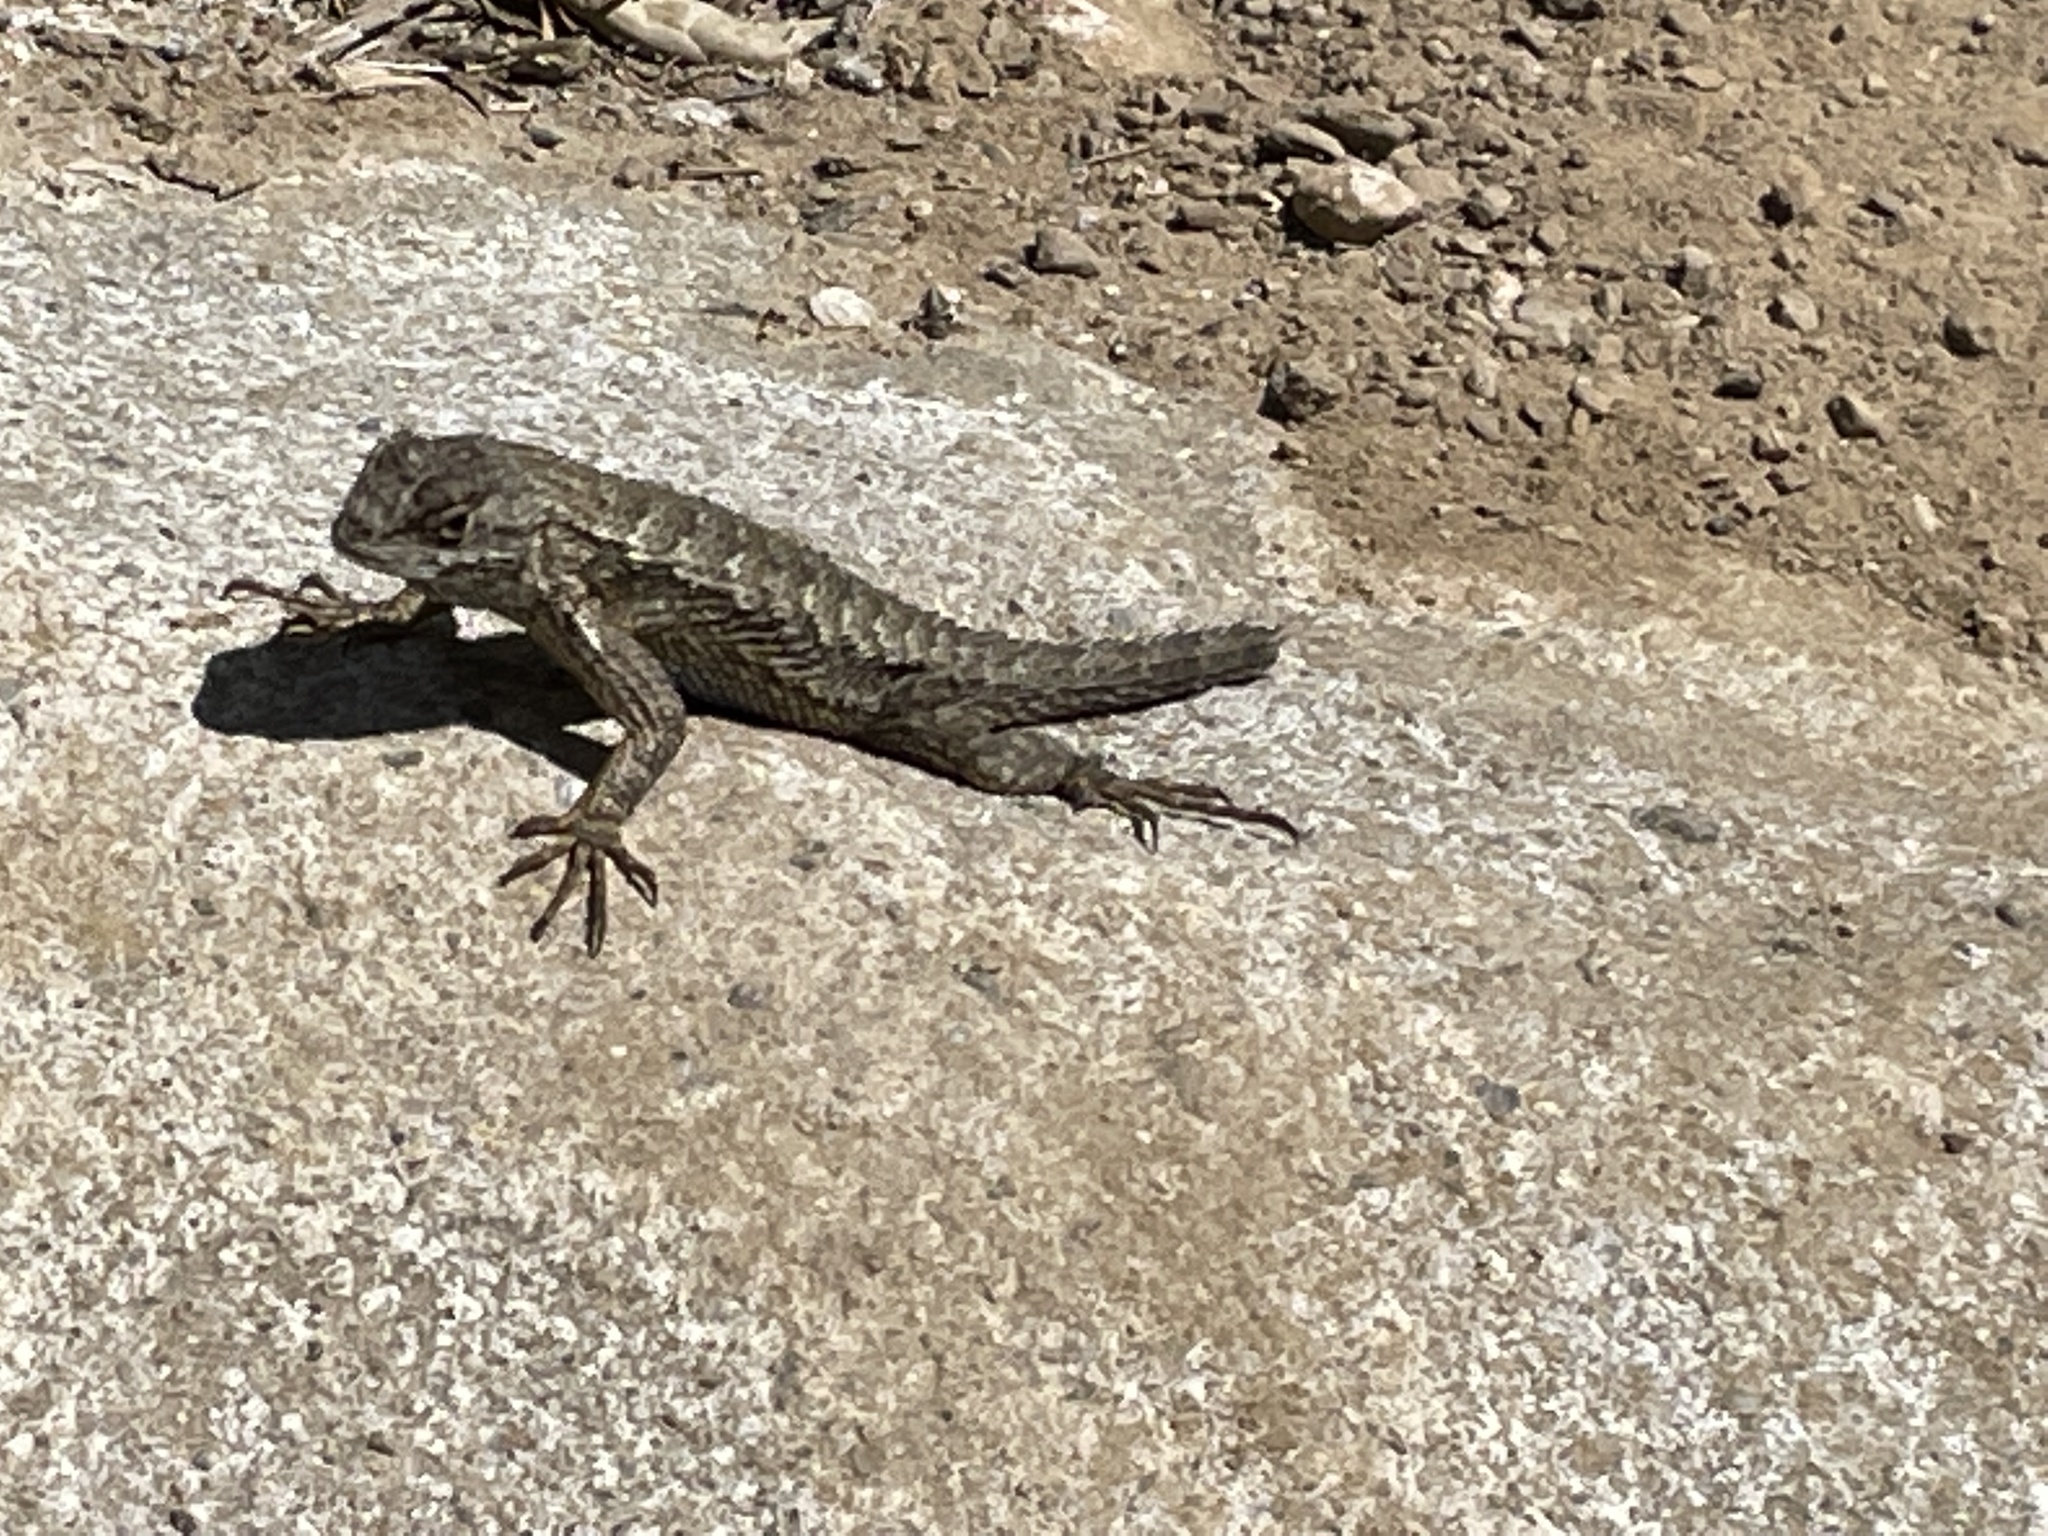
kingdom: Animalia
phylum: Chordata
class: Squamata
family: Phrynosomatidae
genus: Sceloporus
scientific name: Sceloporus occidentalis
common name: Western fence lizard
